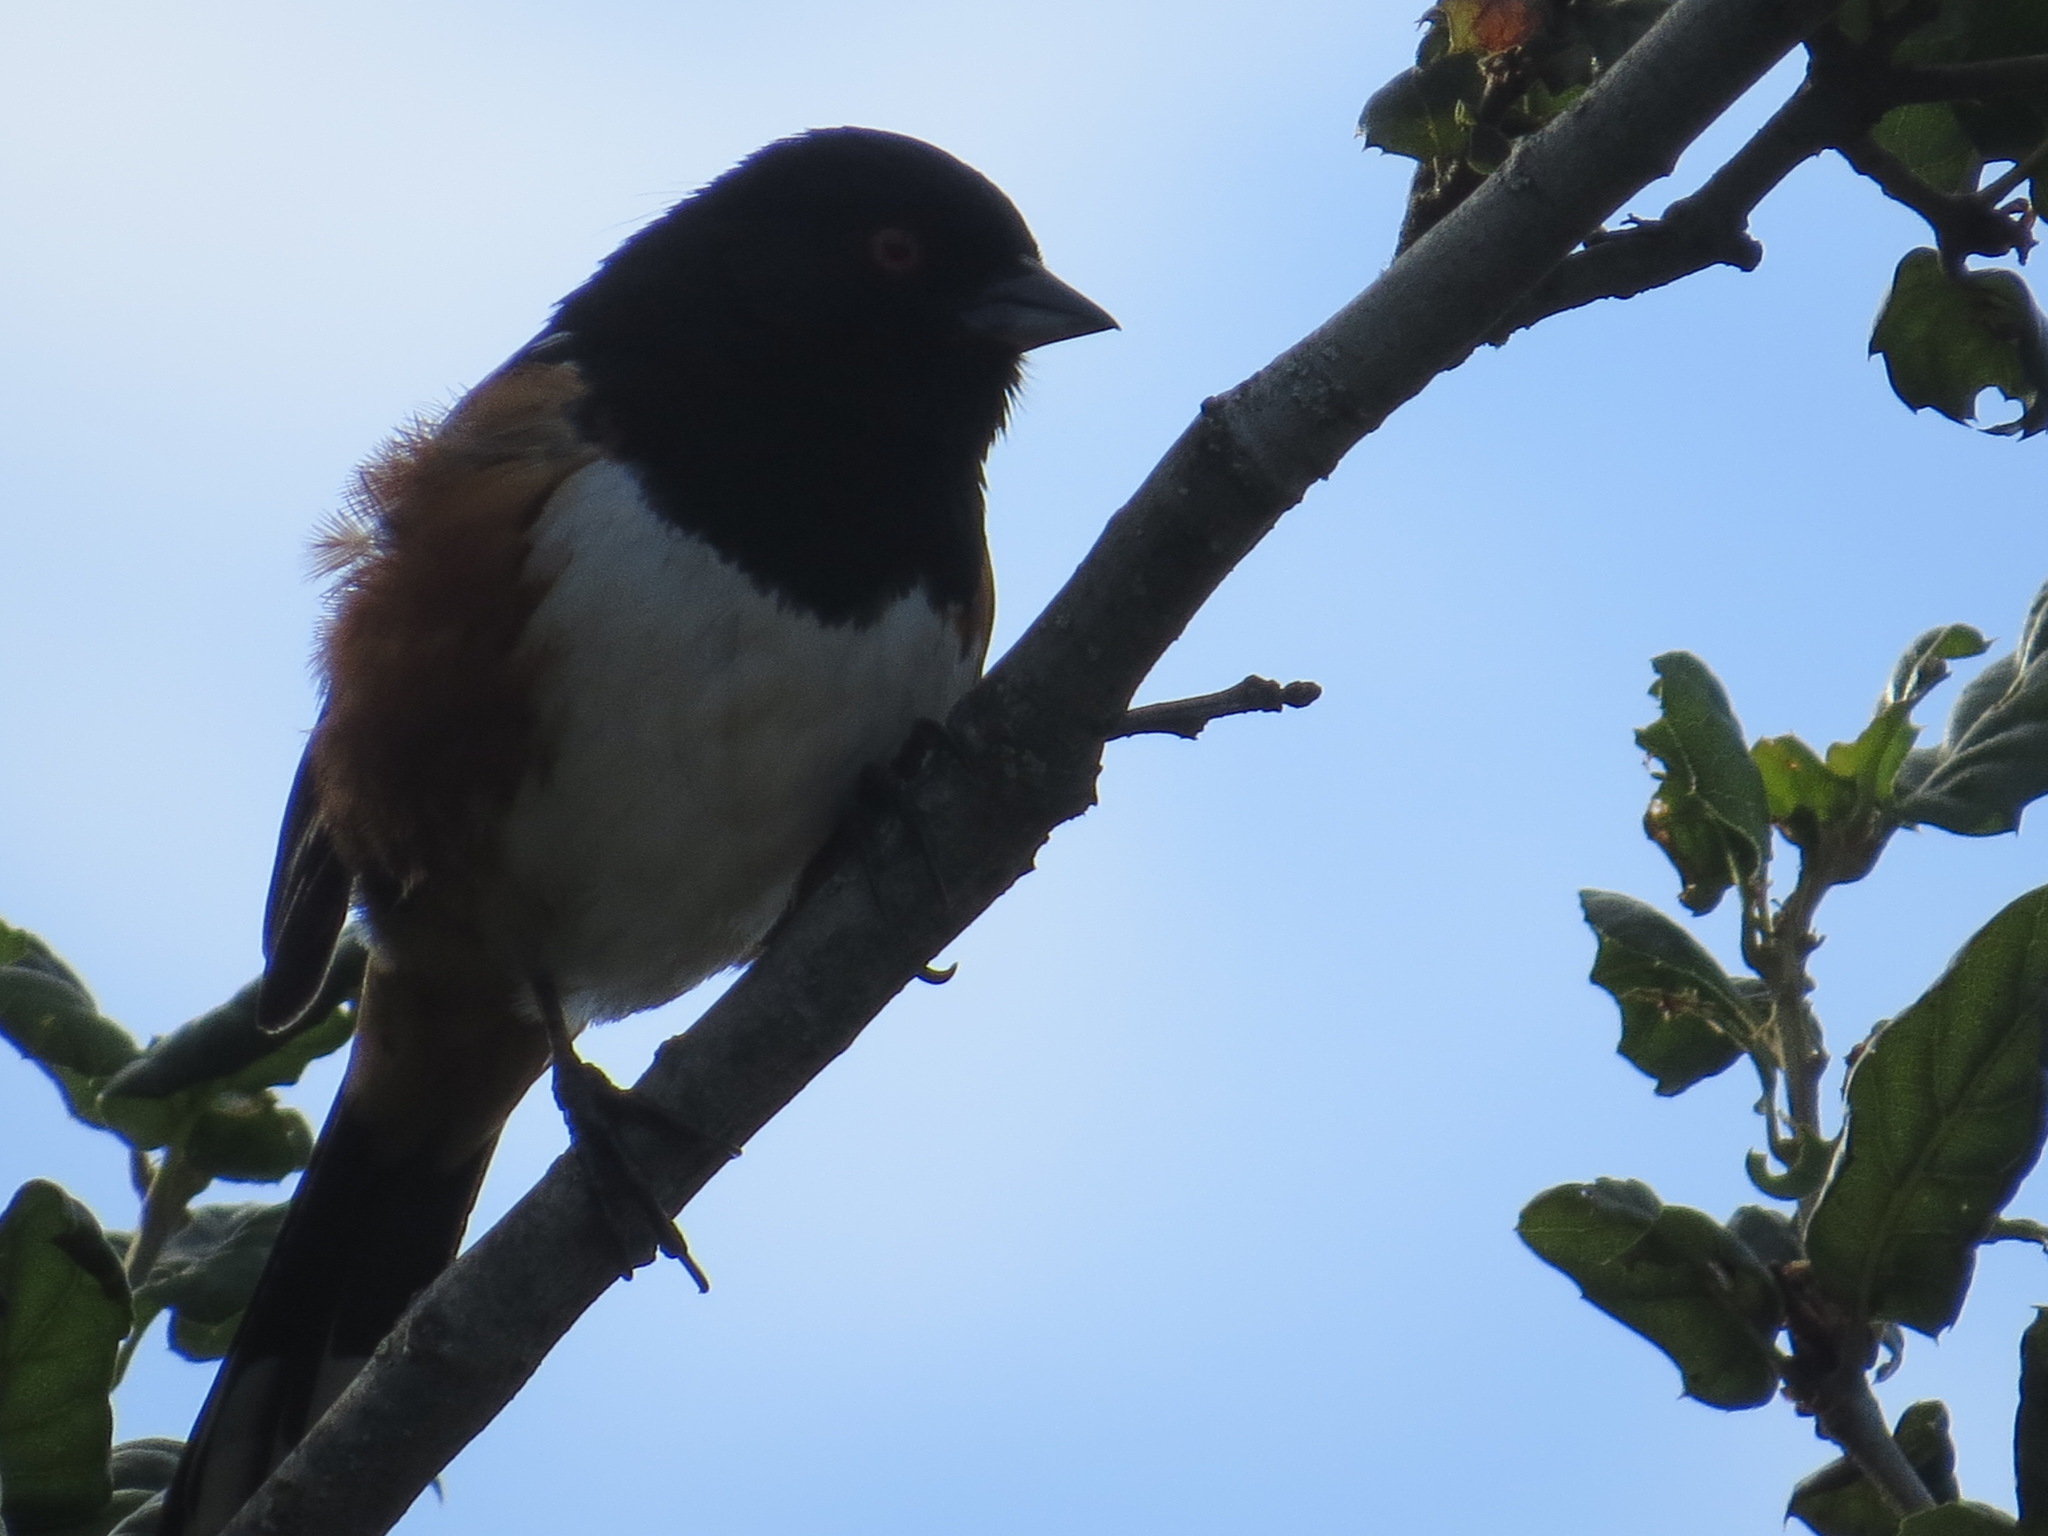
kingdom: Animalia
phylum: Chordata
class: Aves
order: Passeriformes
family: Passerellidae
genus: Pipilo
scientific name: Pipilo maculatus
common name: Spotted towhee
